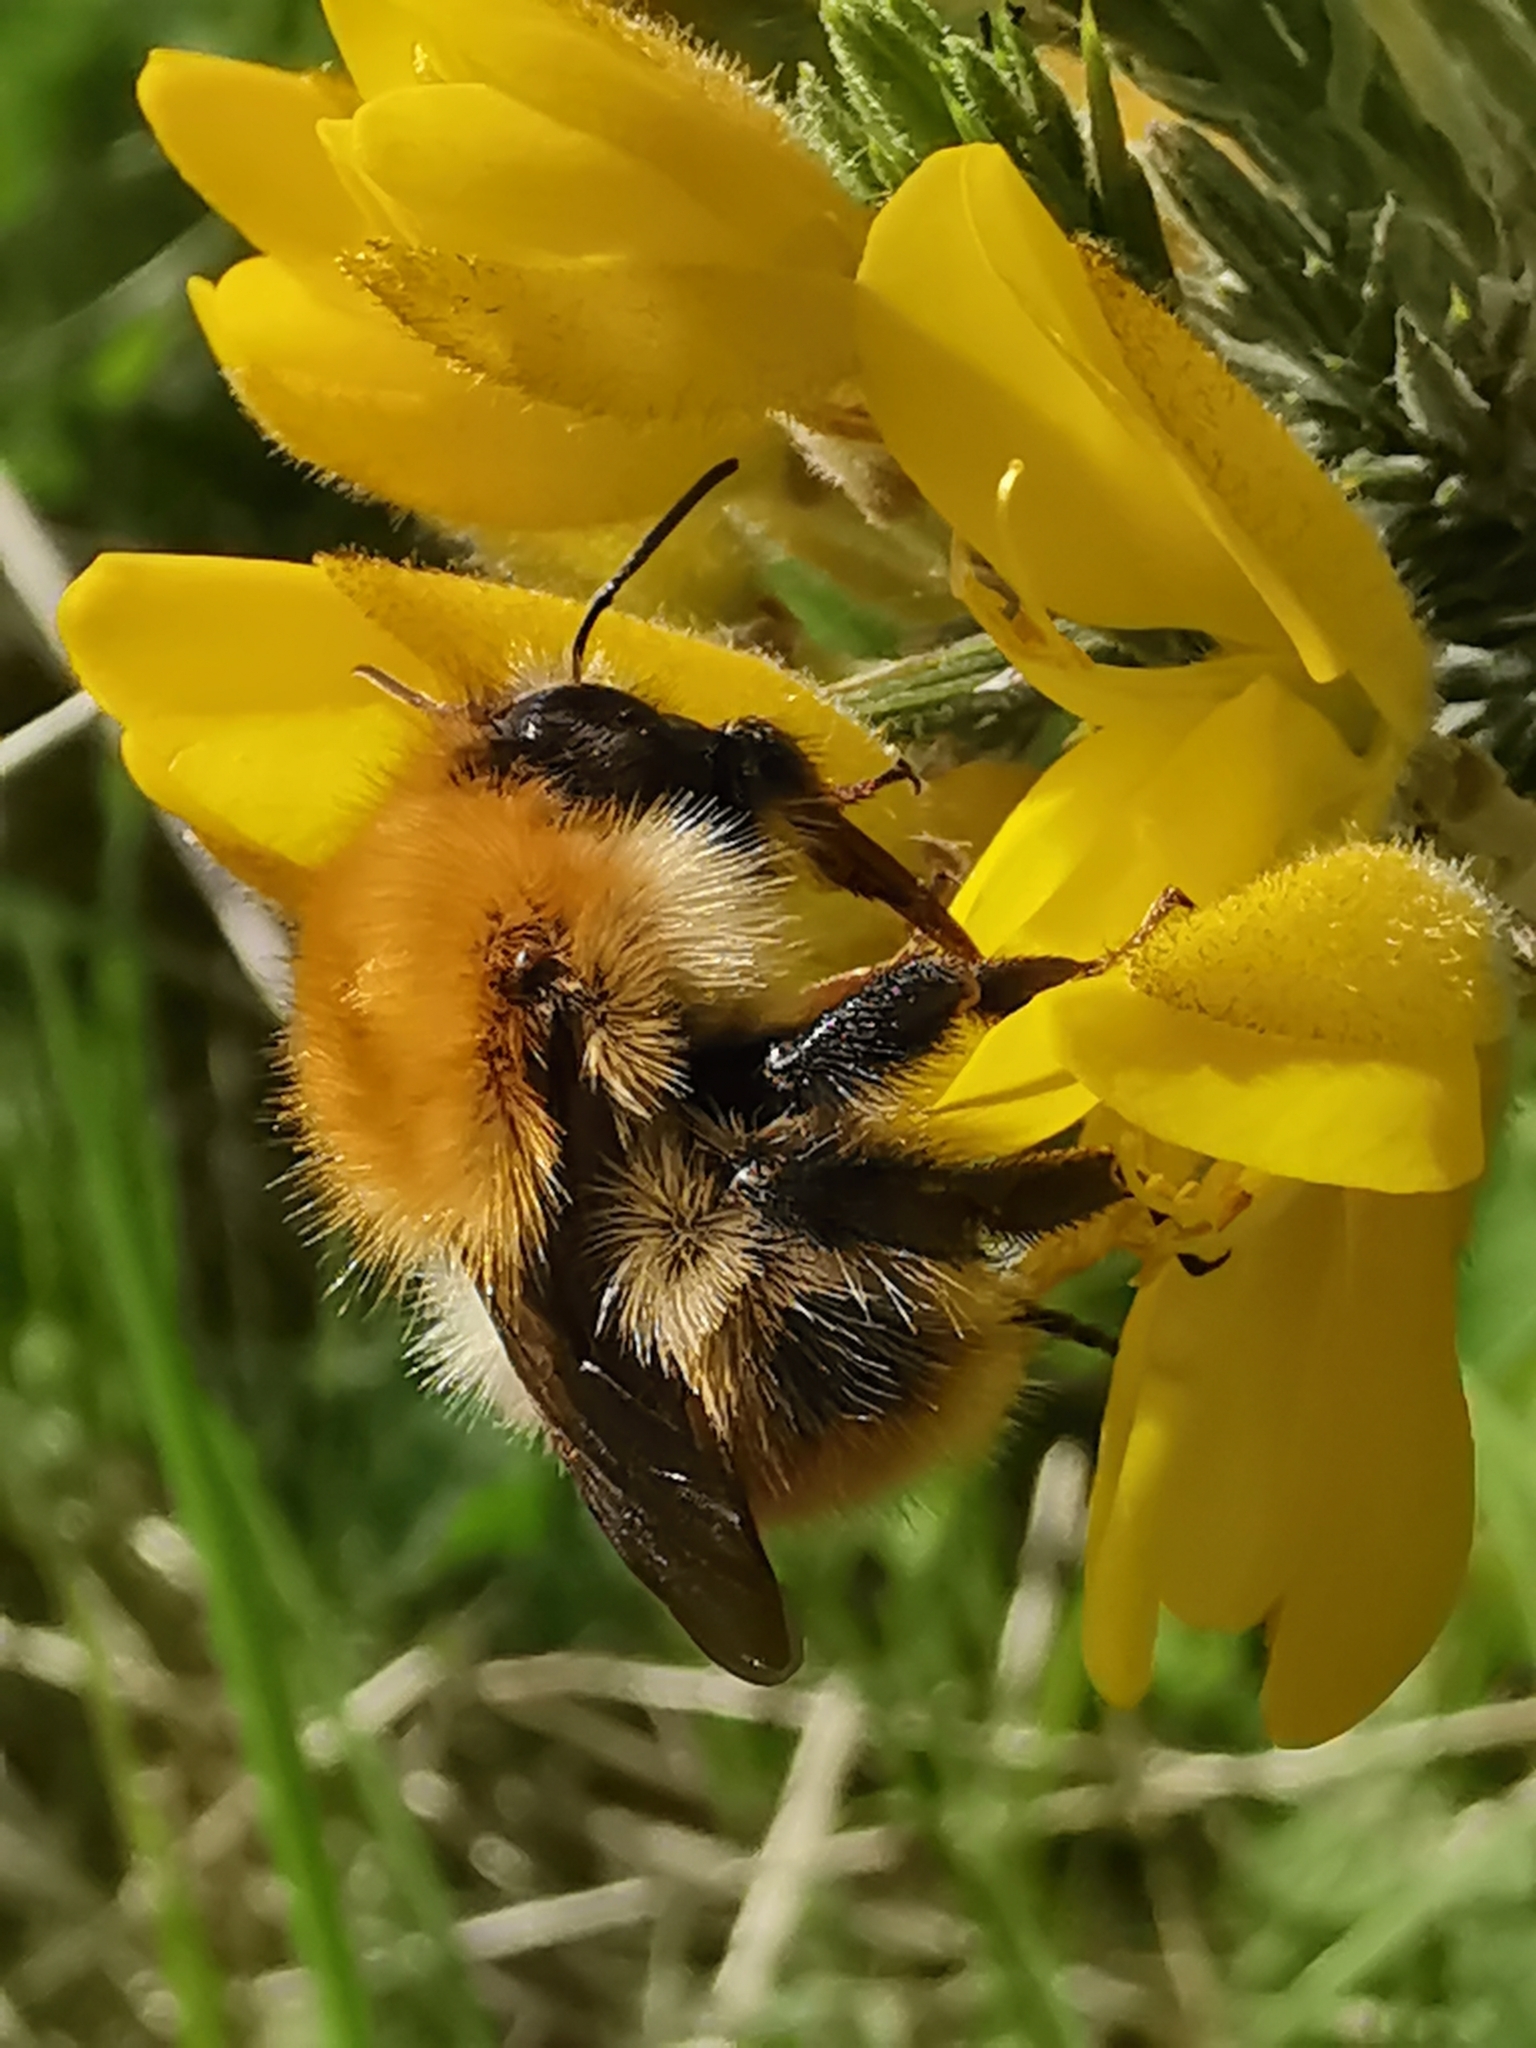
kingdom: Animalia
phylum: Arthropoda
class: Insecta
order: Hymenoptera
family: Apidae
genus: Bombus
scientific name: Bombus pascuorum
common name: Common carder bee
